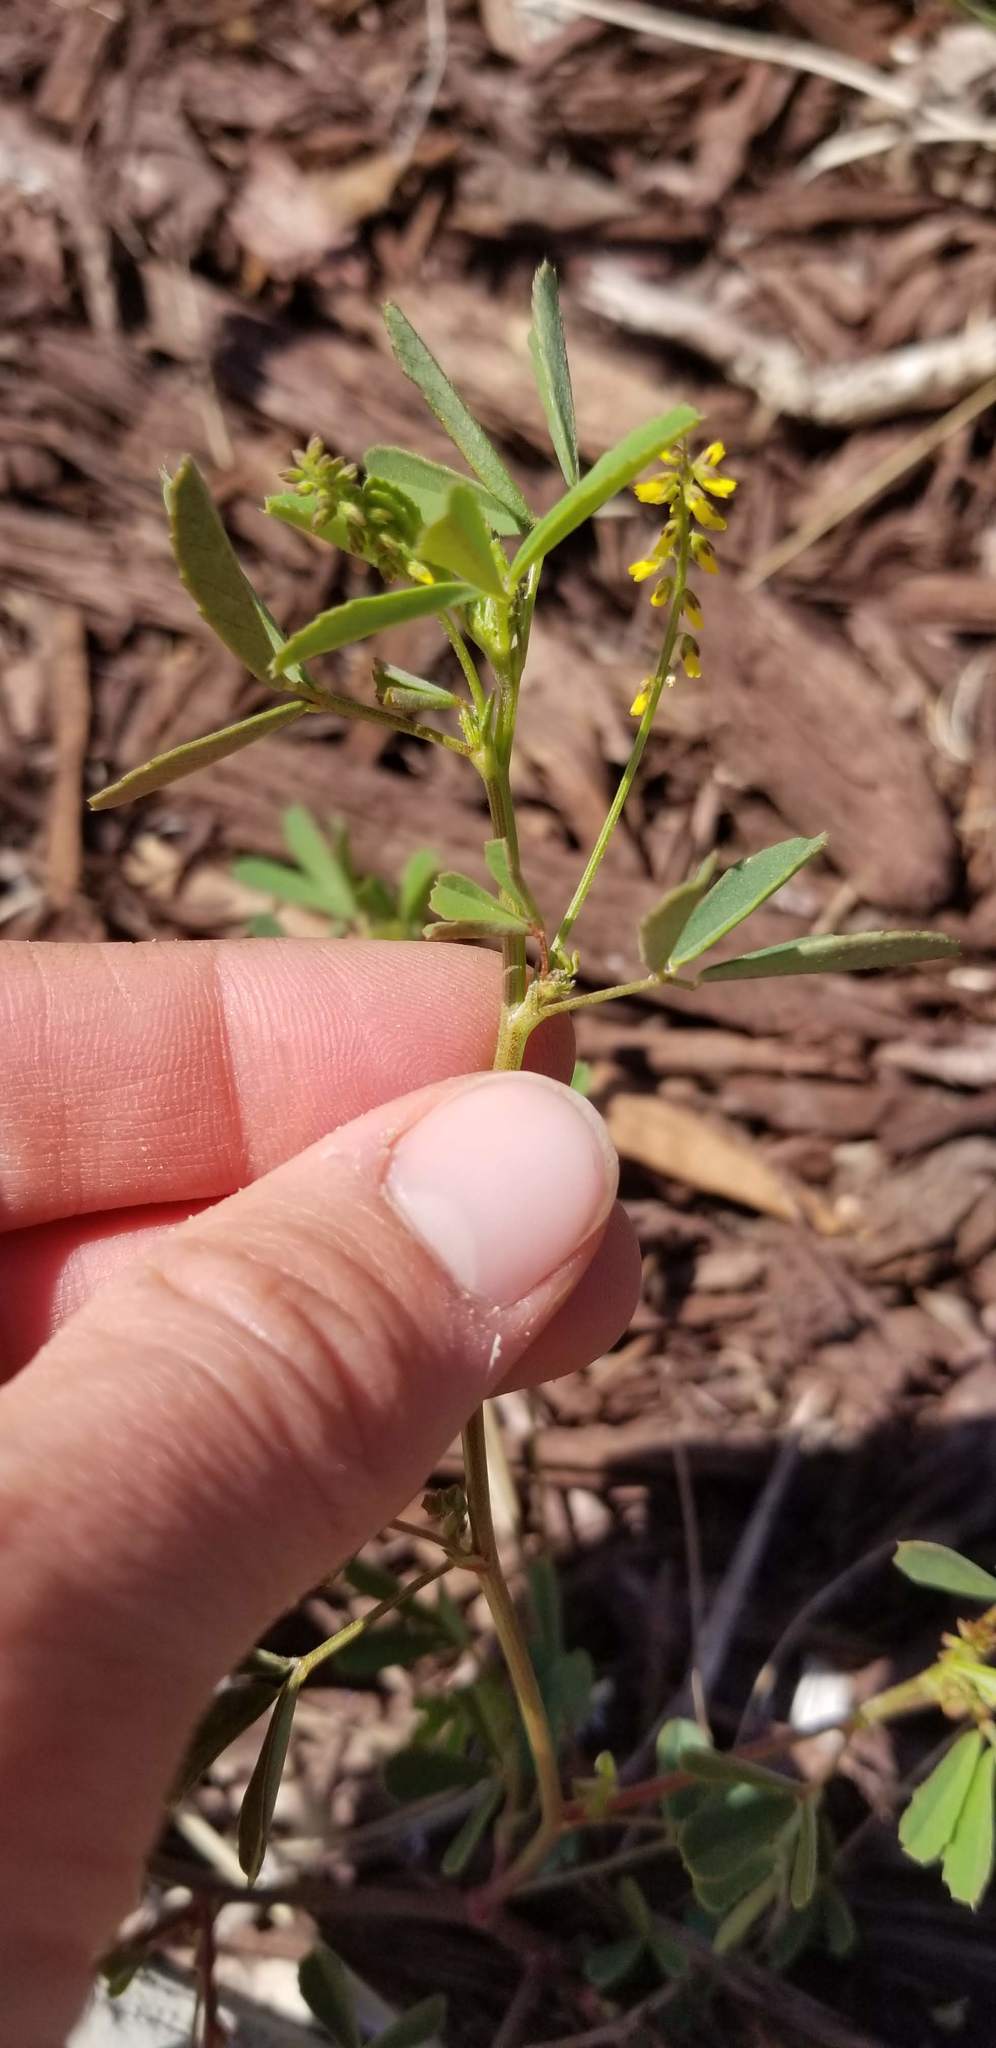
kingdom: Plantae
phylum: Tracheophyta
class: Magnoliopsida
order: Fabales
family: Fabaceae
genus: Melilotus
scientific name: Melilotus indicus
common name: Small melilot
